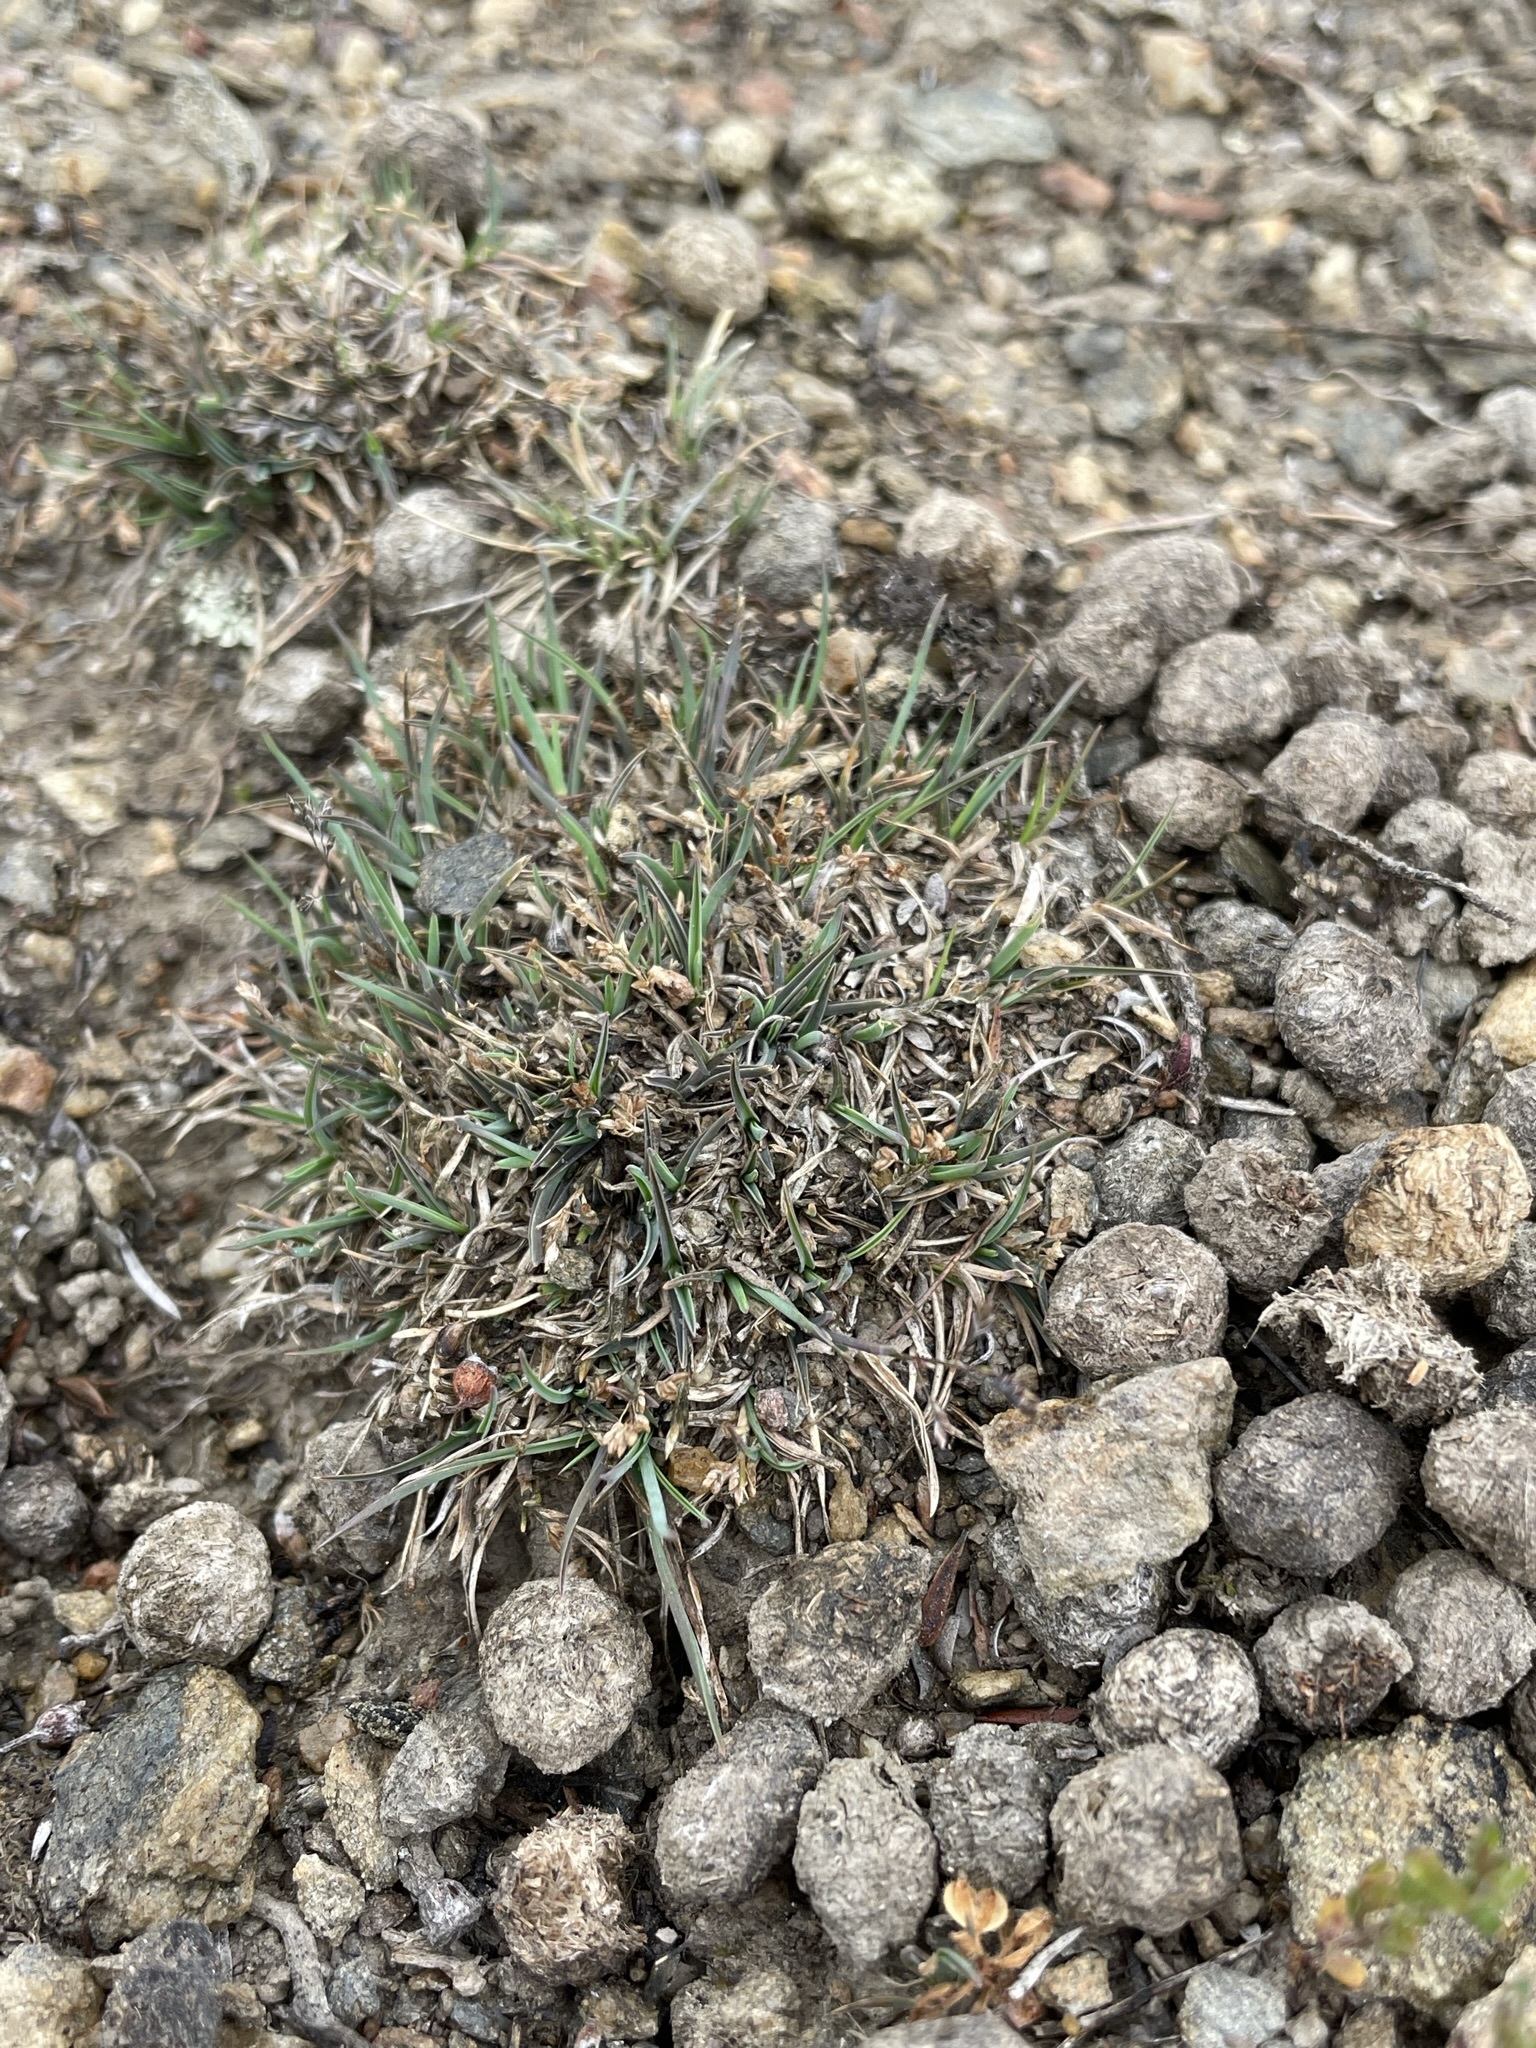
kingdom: Plantae
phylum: Tracheophyta
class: Liliopsida
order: Poales
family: Poaceae
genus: Poa
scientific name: Poa maniototo
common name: Desert poa
